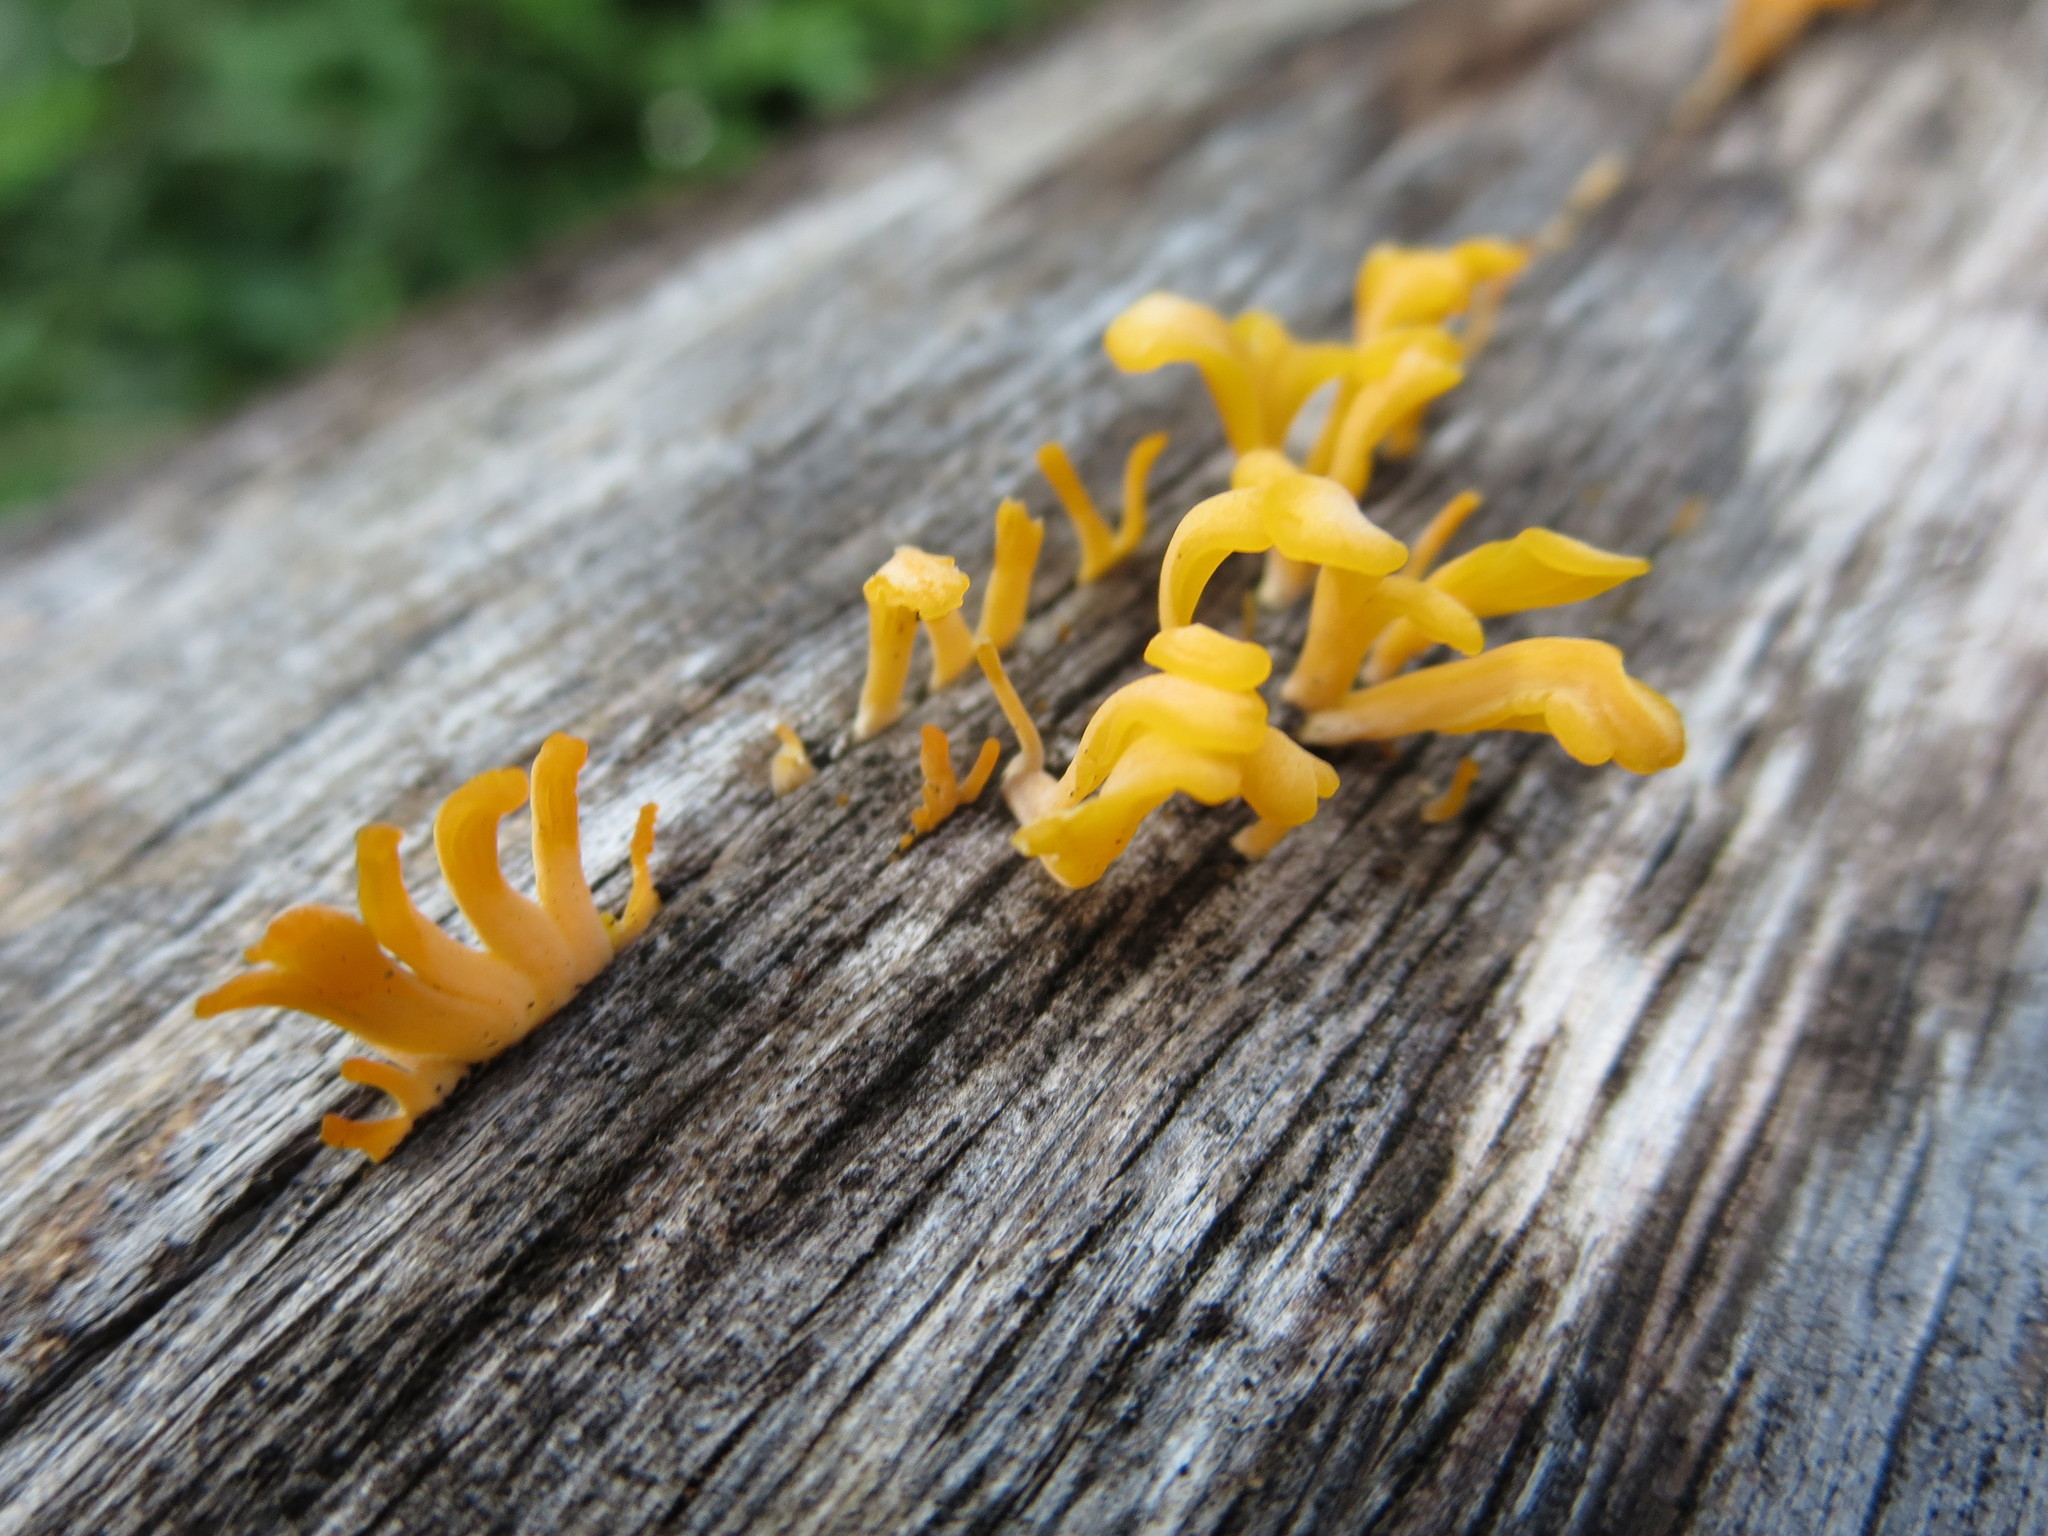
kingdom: Fungi
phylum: Basidiomycota
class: Dacrymycetes
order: Dacrymycetales
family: Dacrymycetaceae
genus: Dacrymyces
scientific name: Dacrymyces spathularius
